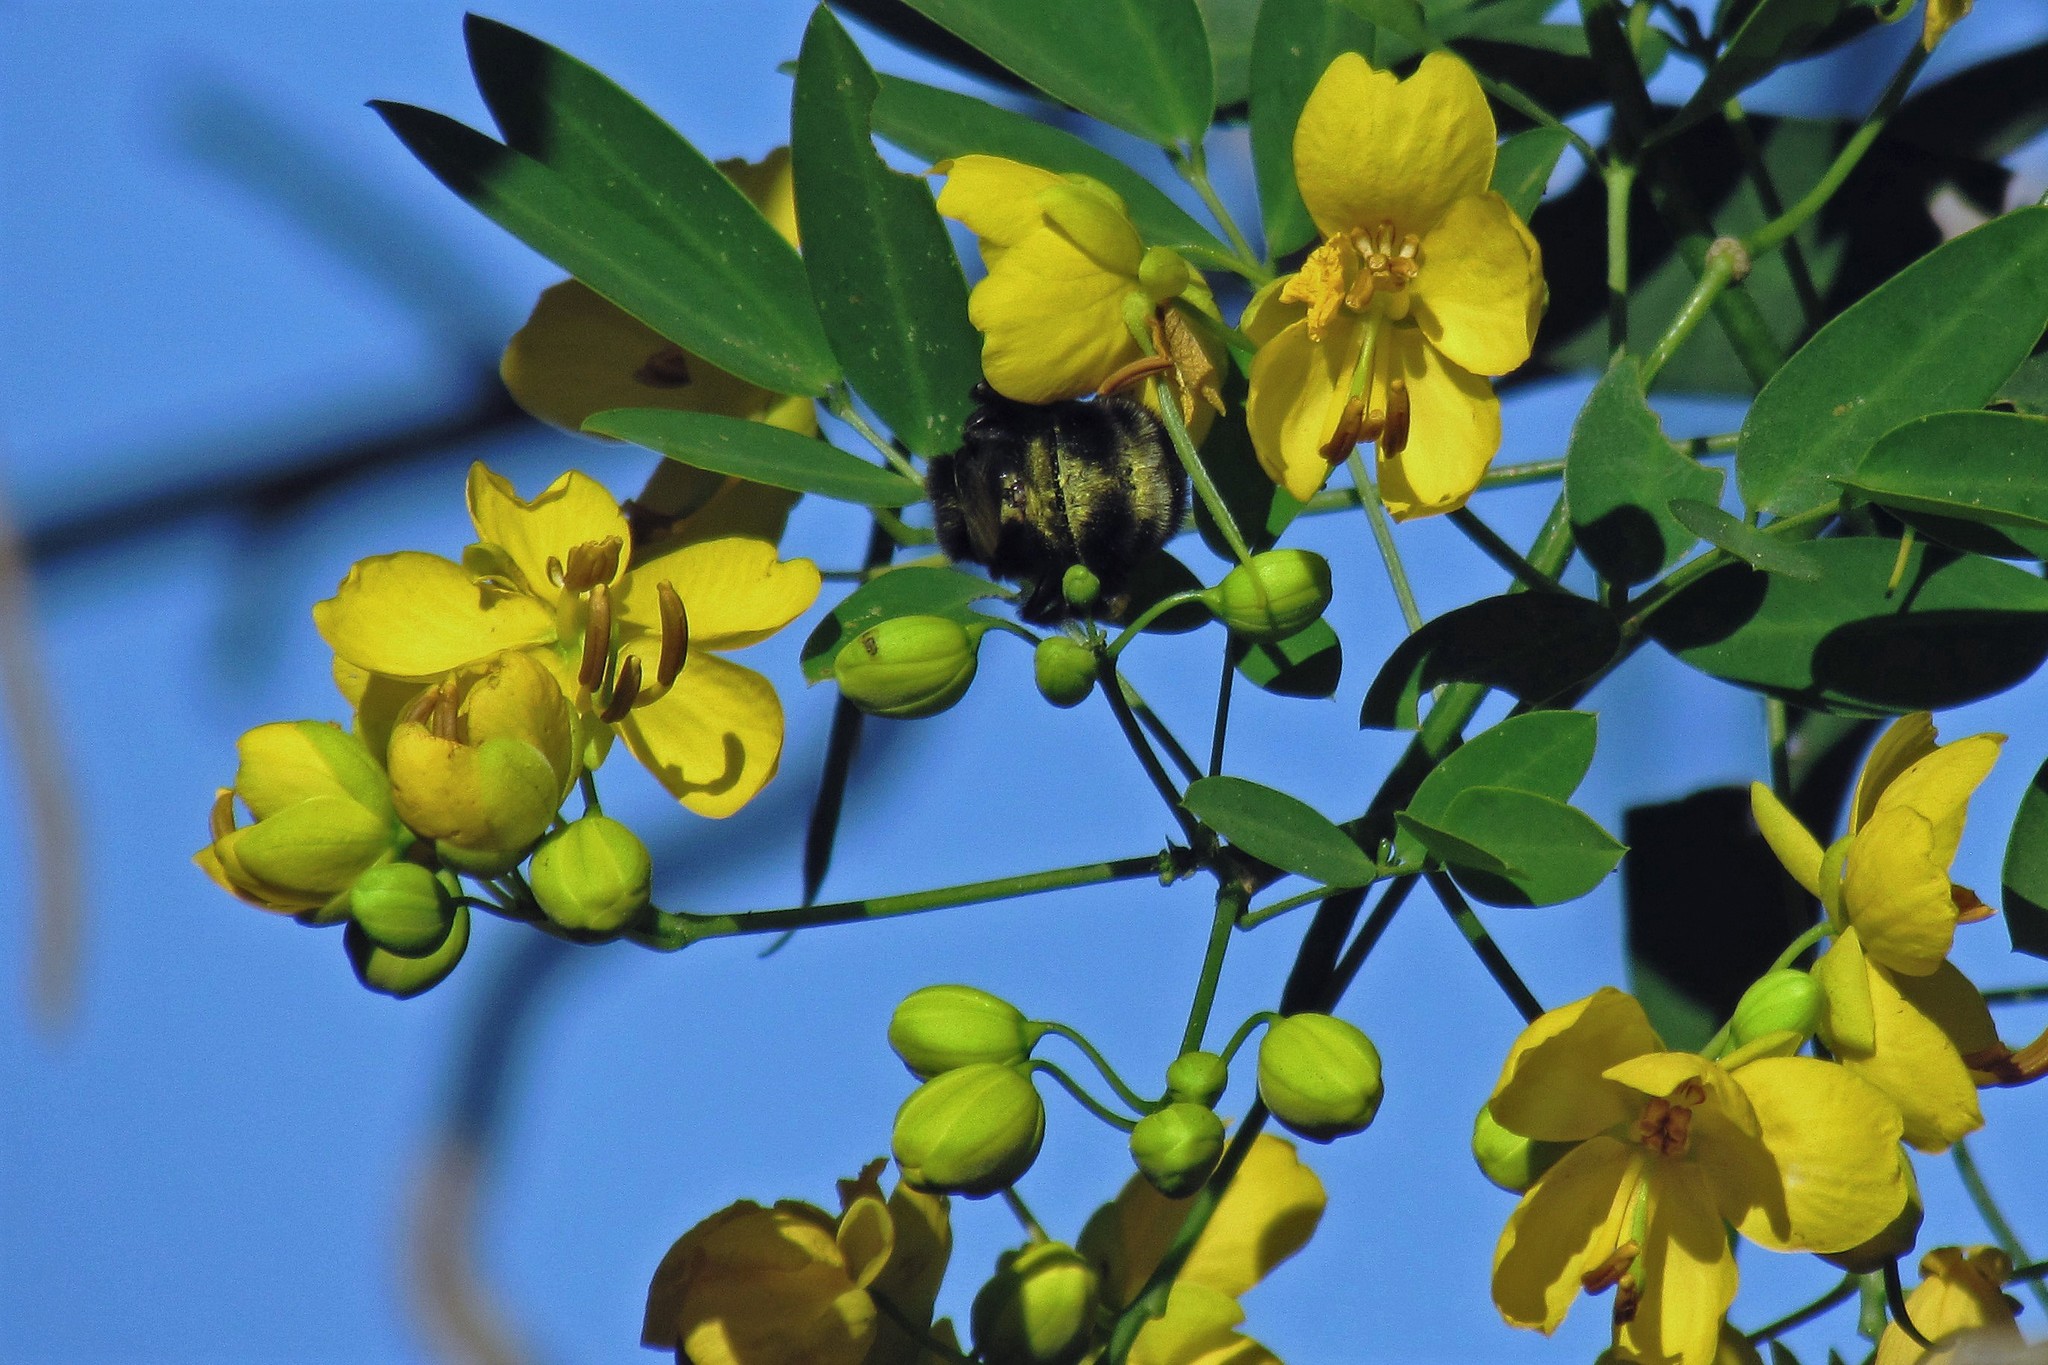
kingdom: Plantae
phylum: Tracheophyta
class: Magnoliopsida
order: Fabales
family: Fabaceae
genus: Senna
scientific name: Senna corymbosa
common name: Argentine senna
